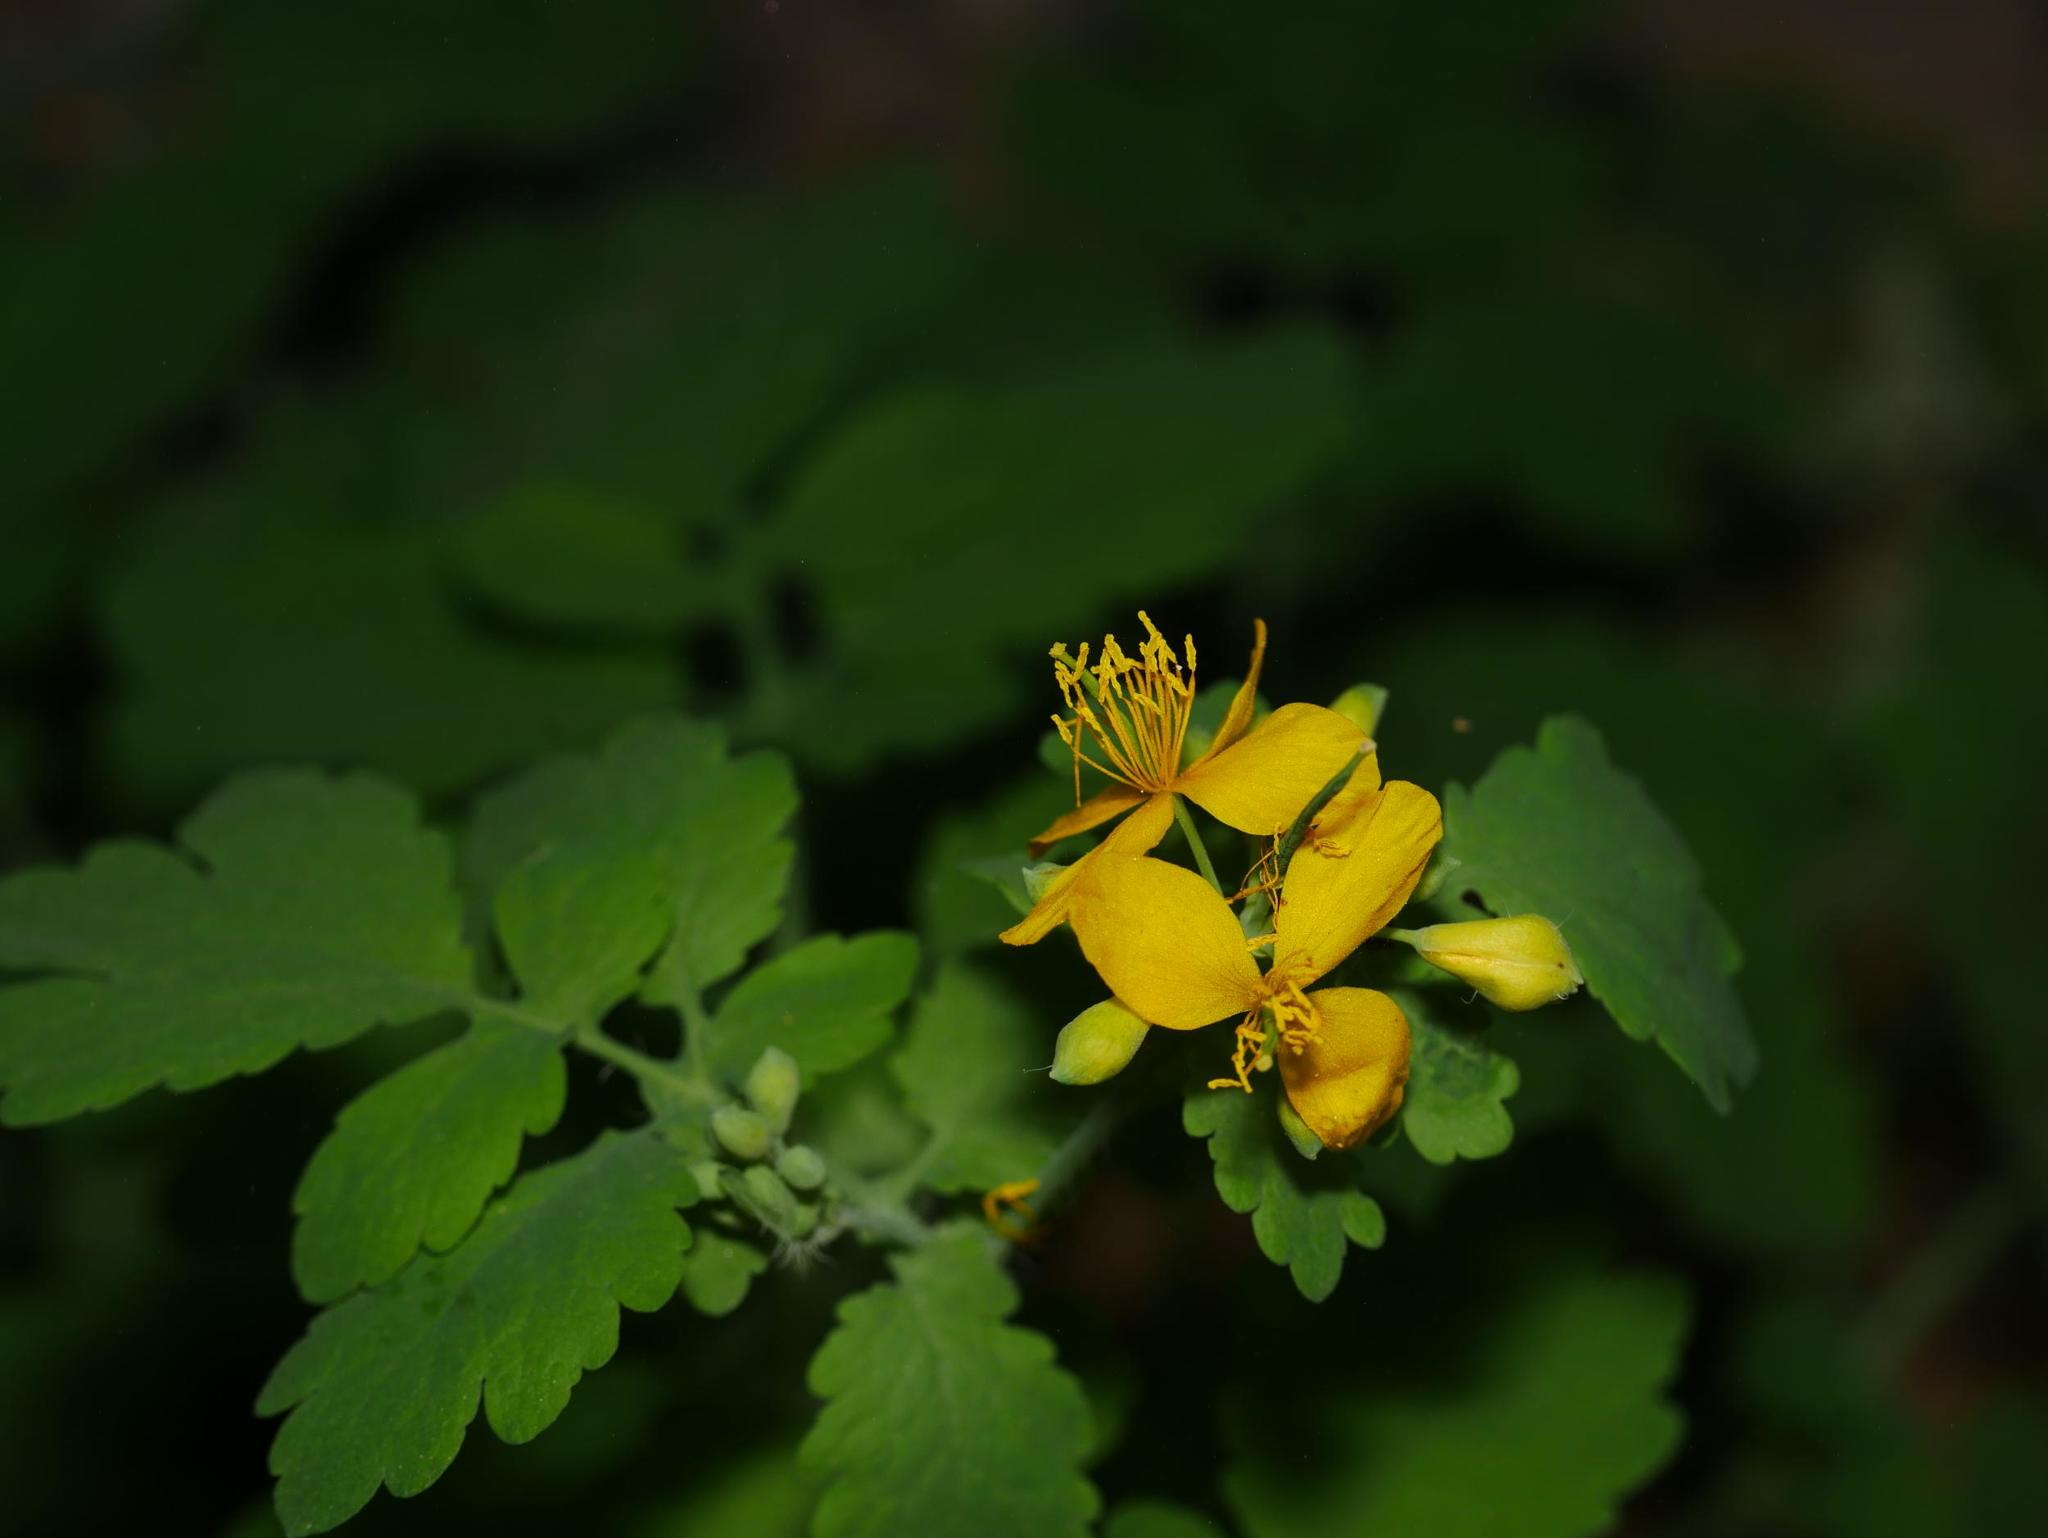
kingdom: Plantae
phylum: Tracheophyta
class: Magnoliopsida
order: Ranunculales
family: Papaveraceae
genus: Chelidonium
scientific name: Chelidonium majus
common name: Greater celandine
